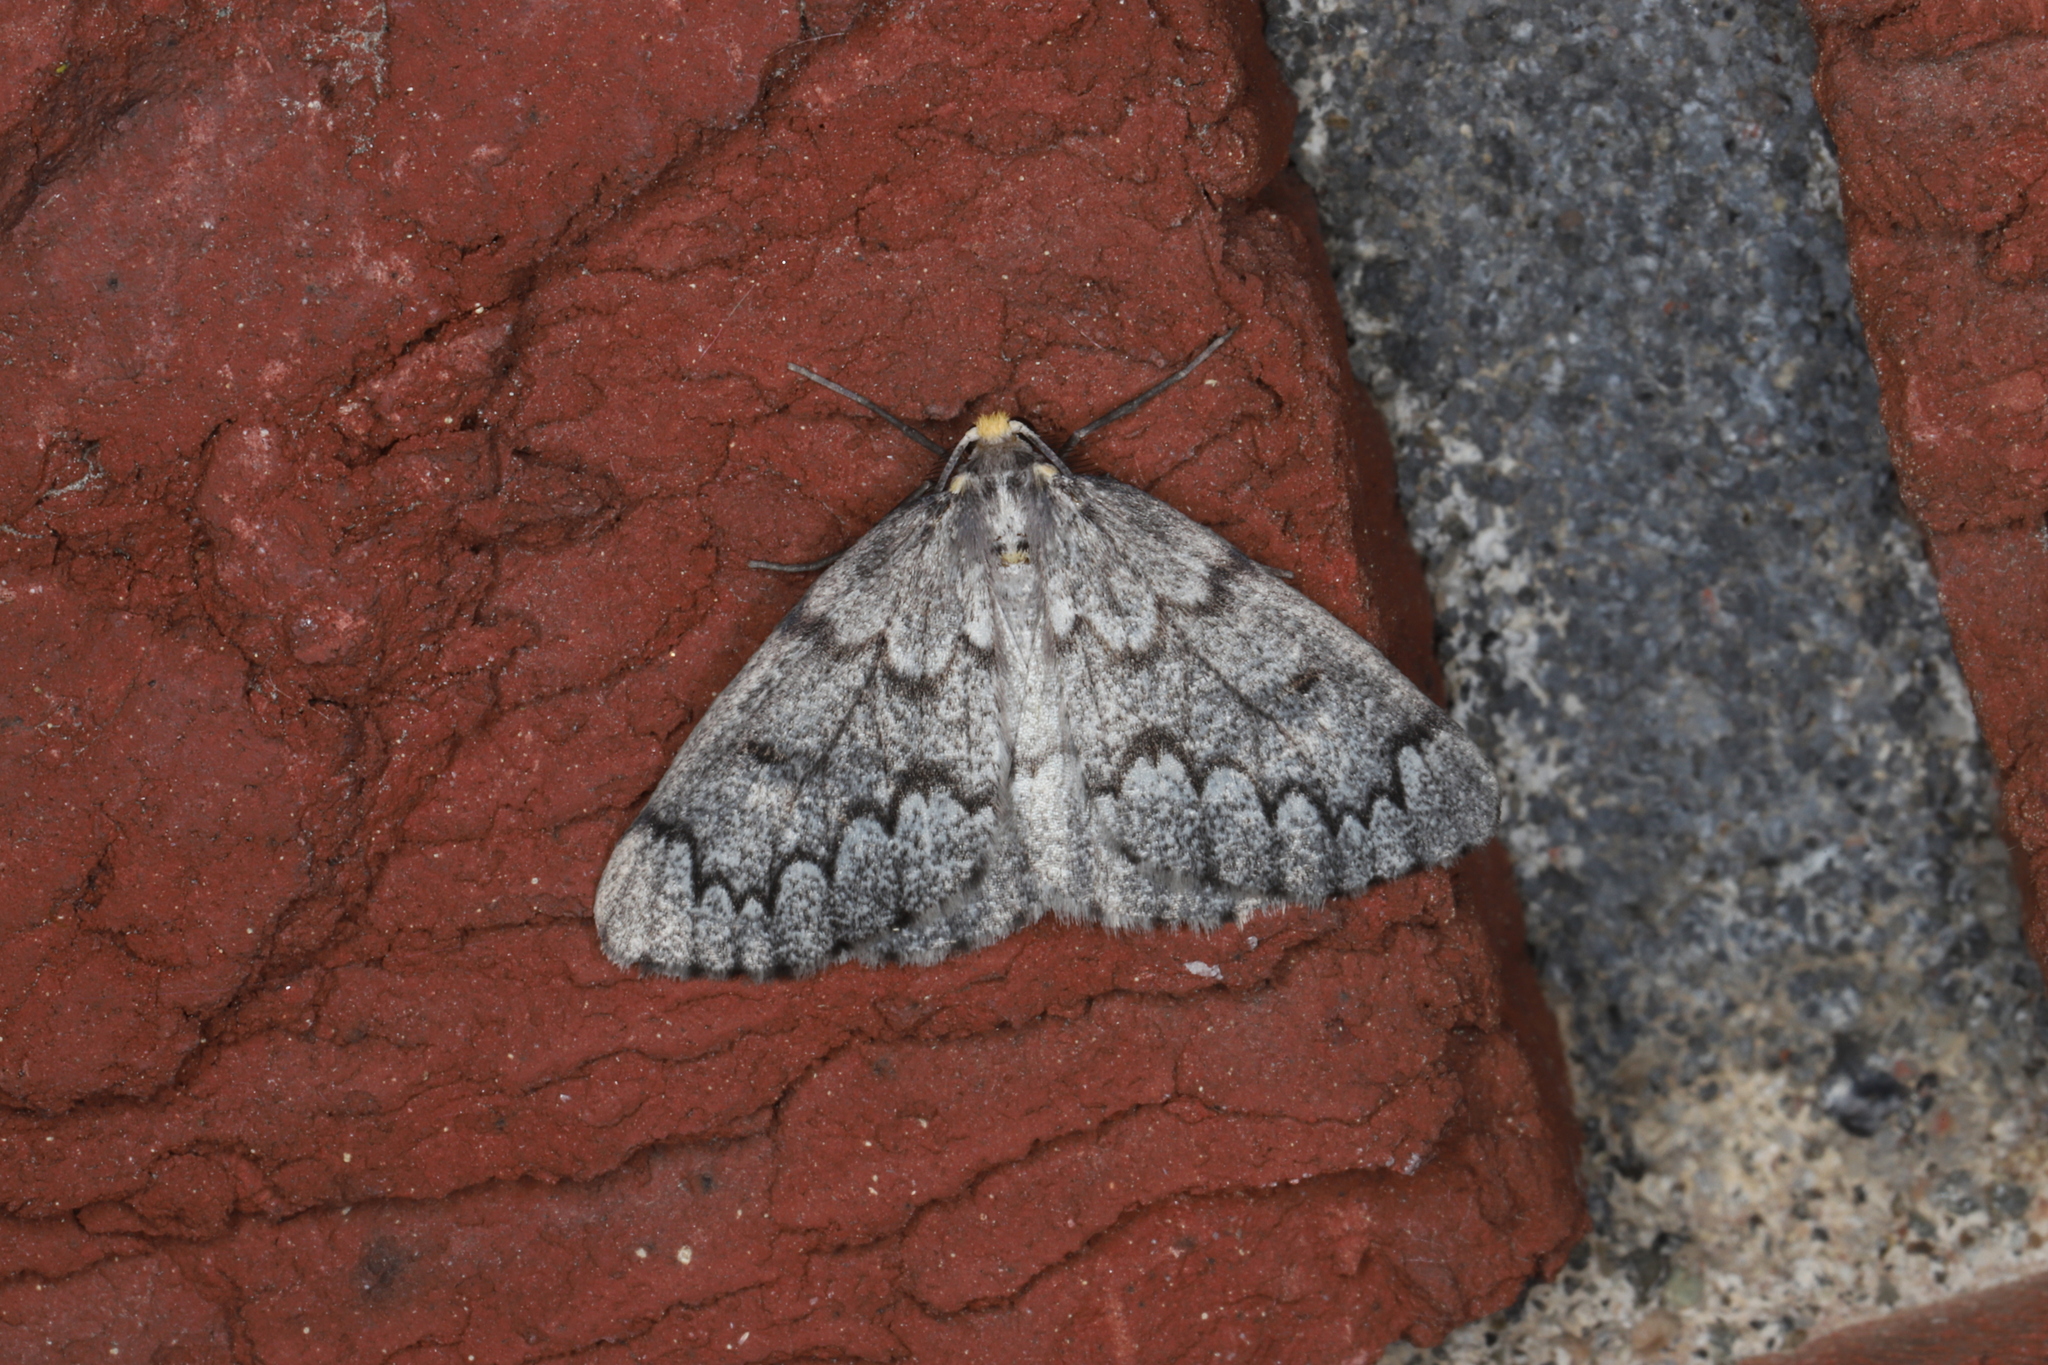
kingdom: Animalia
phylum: Arthropoda
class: Insecta
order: Lepidoptera
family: Geometridae
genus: Nepytia
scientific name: Nepytia canosaria
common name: False hemlock looper
